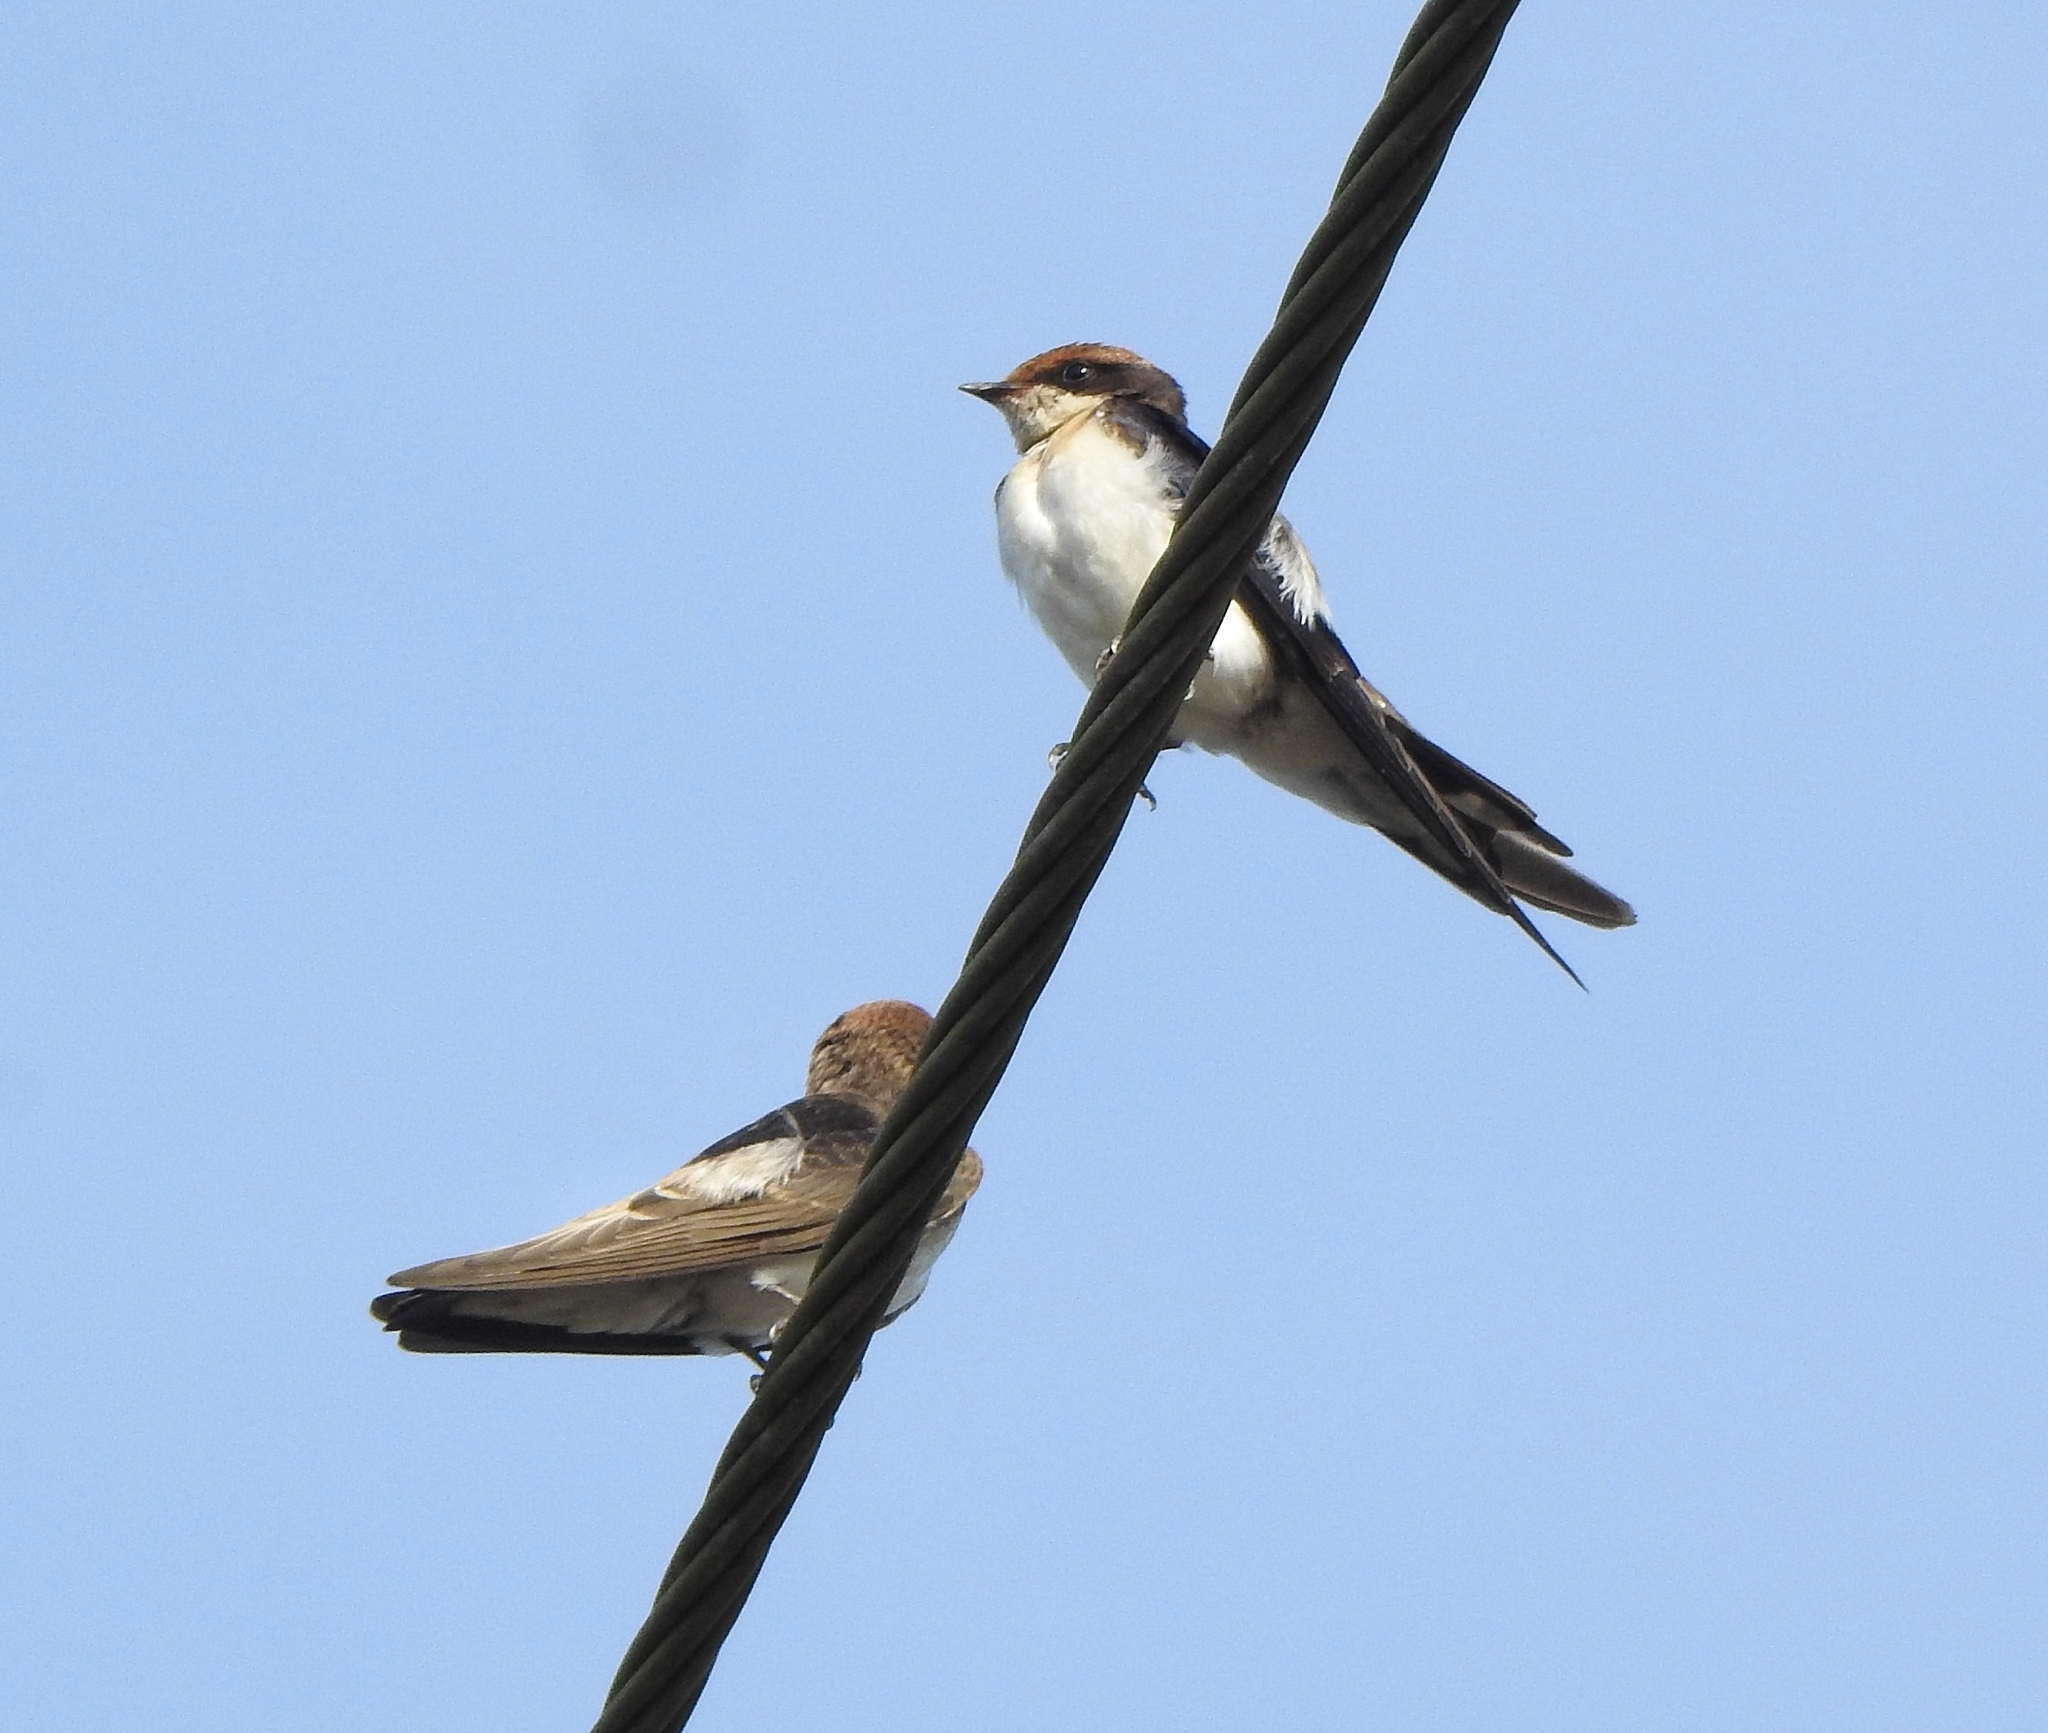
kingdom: Animalia
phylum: Chordata
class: Aves
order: Passeriformes
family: Hirundinidae
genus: Hirundo
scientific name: Hirundo smithii
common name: Wire-tailed swallow
